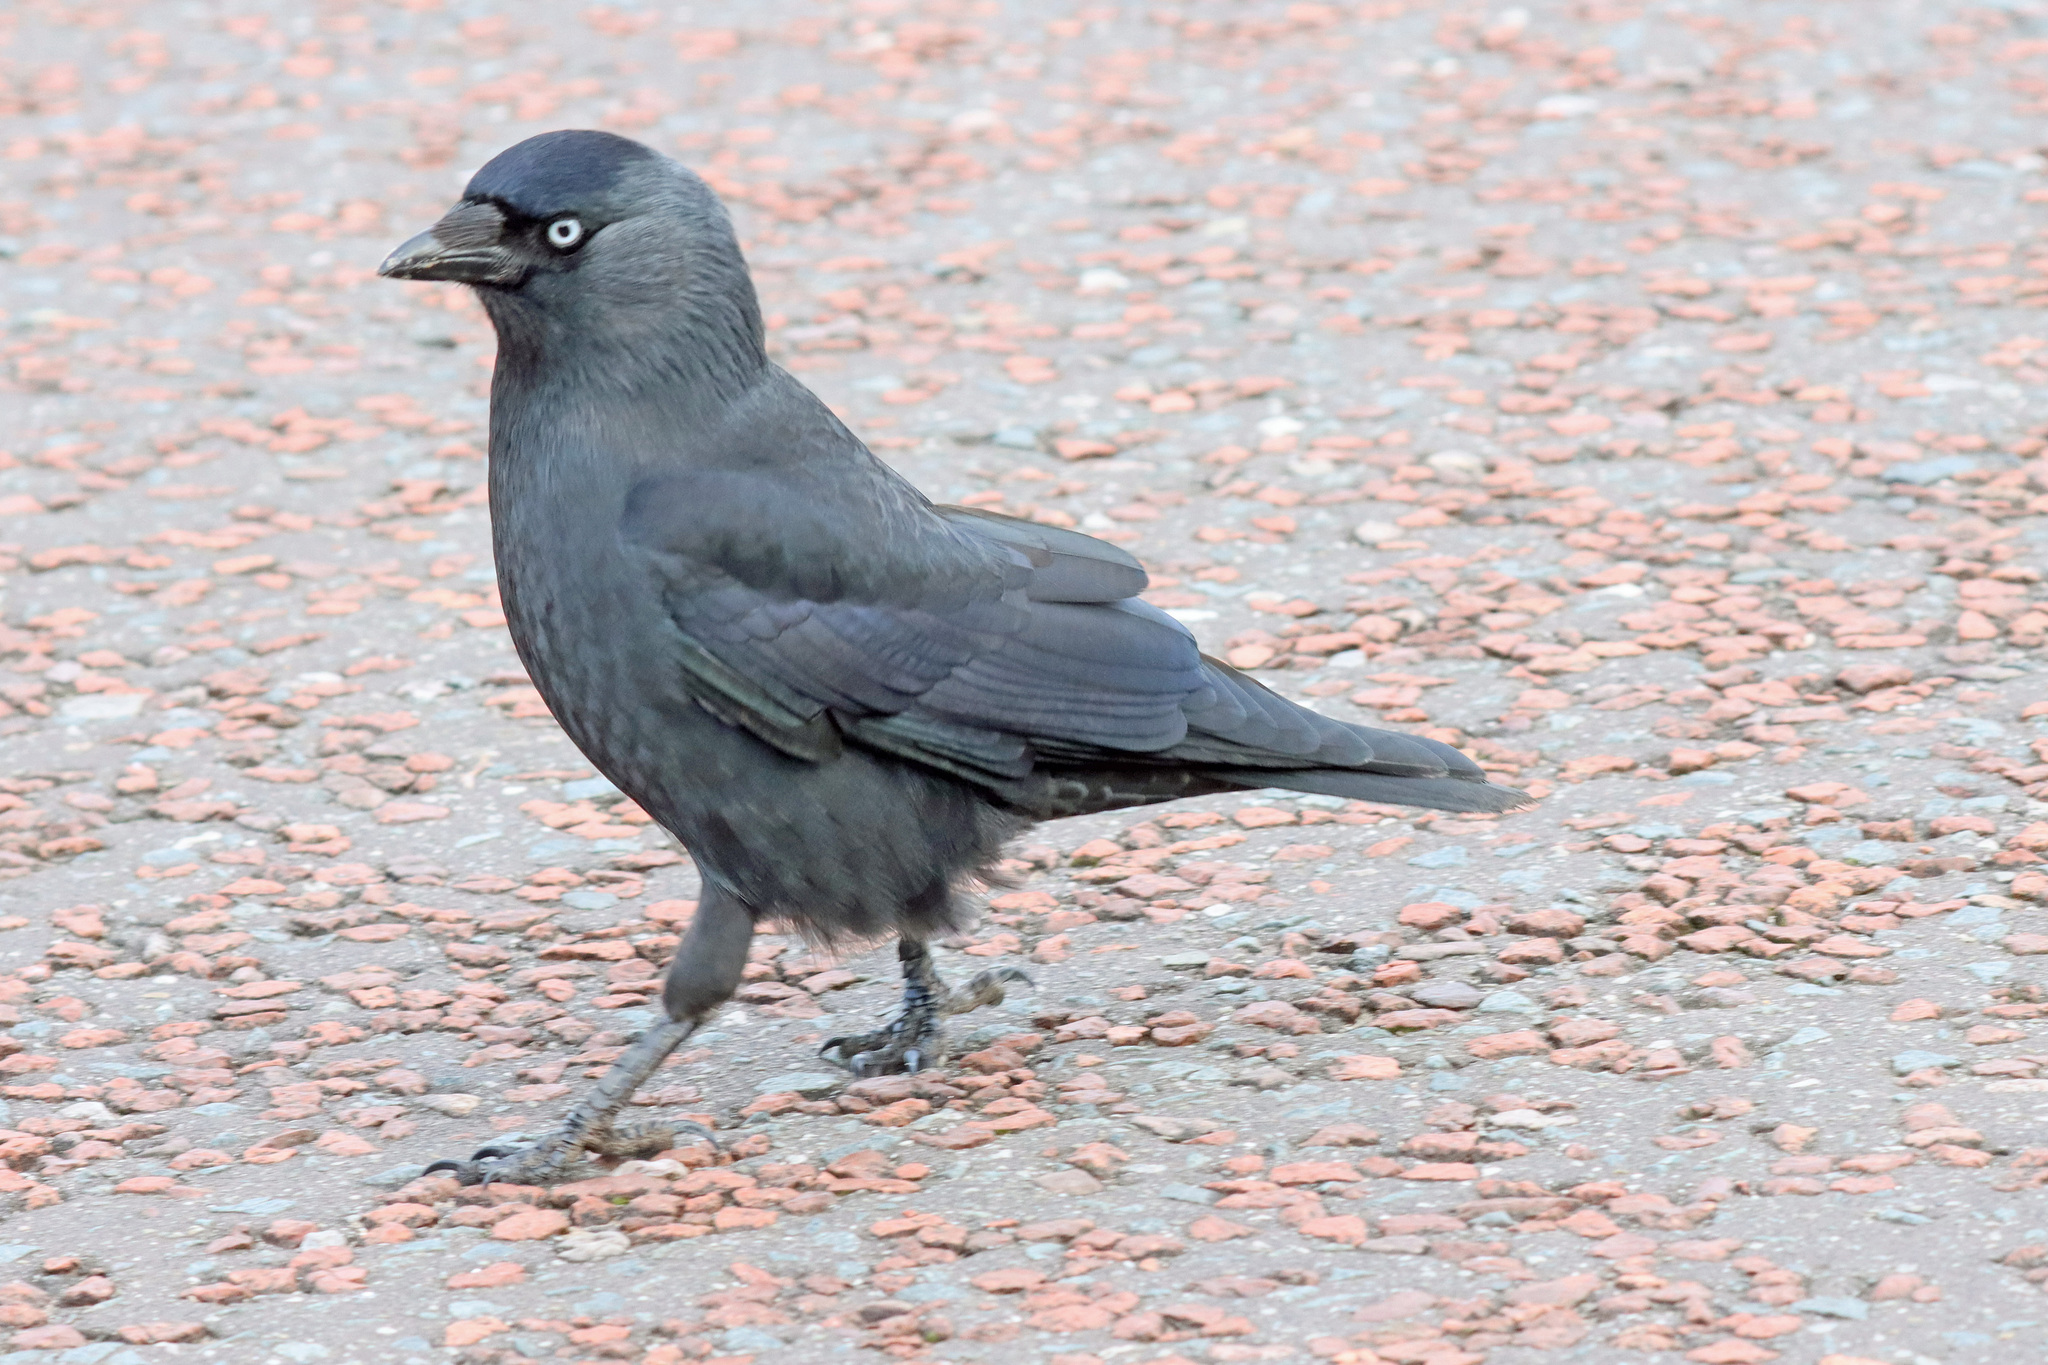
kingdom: Animalia
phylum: Chordata
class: Aves
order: Passeriformes
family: Corvidae
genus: Coloeus
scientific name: Coloeus monedula
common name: Western jackdaw
